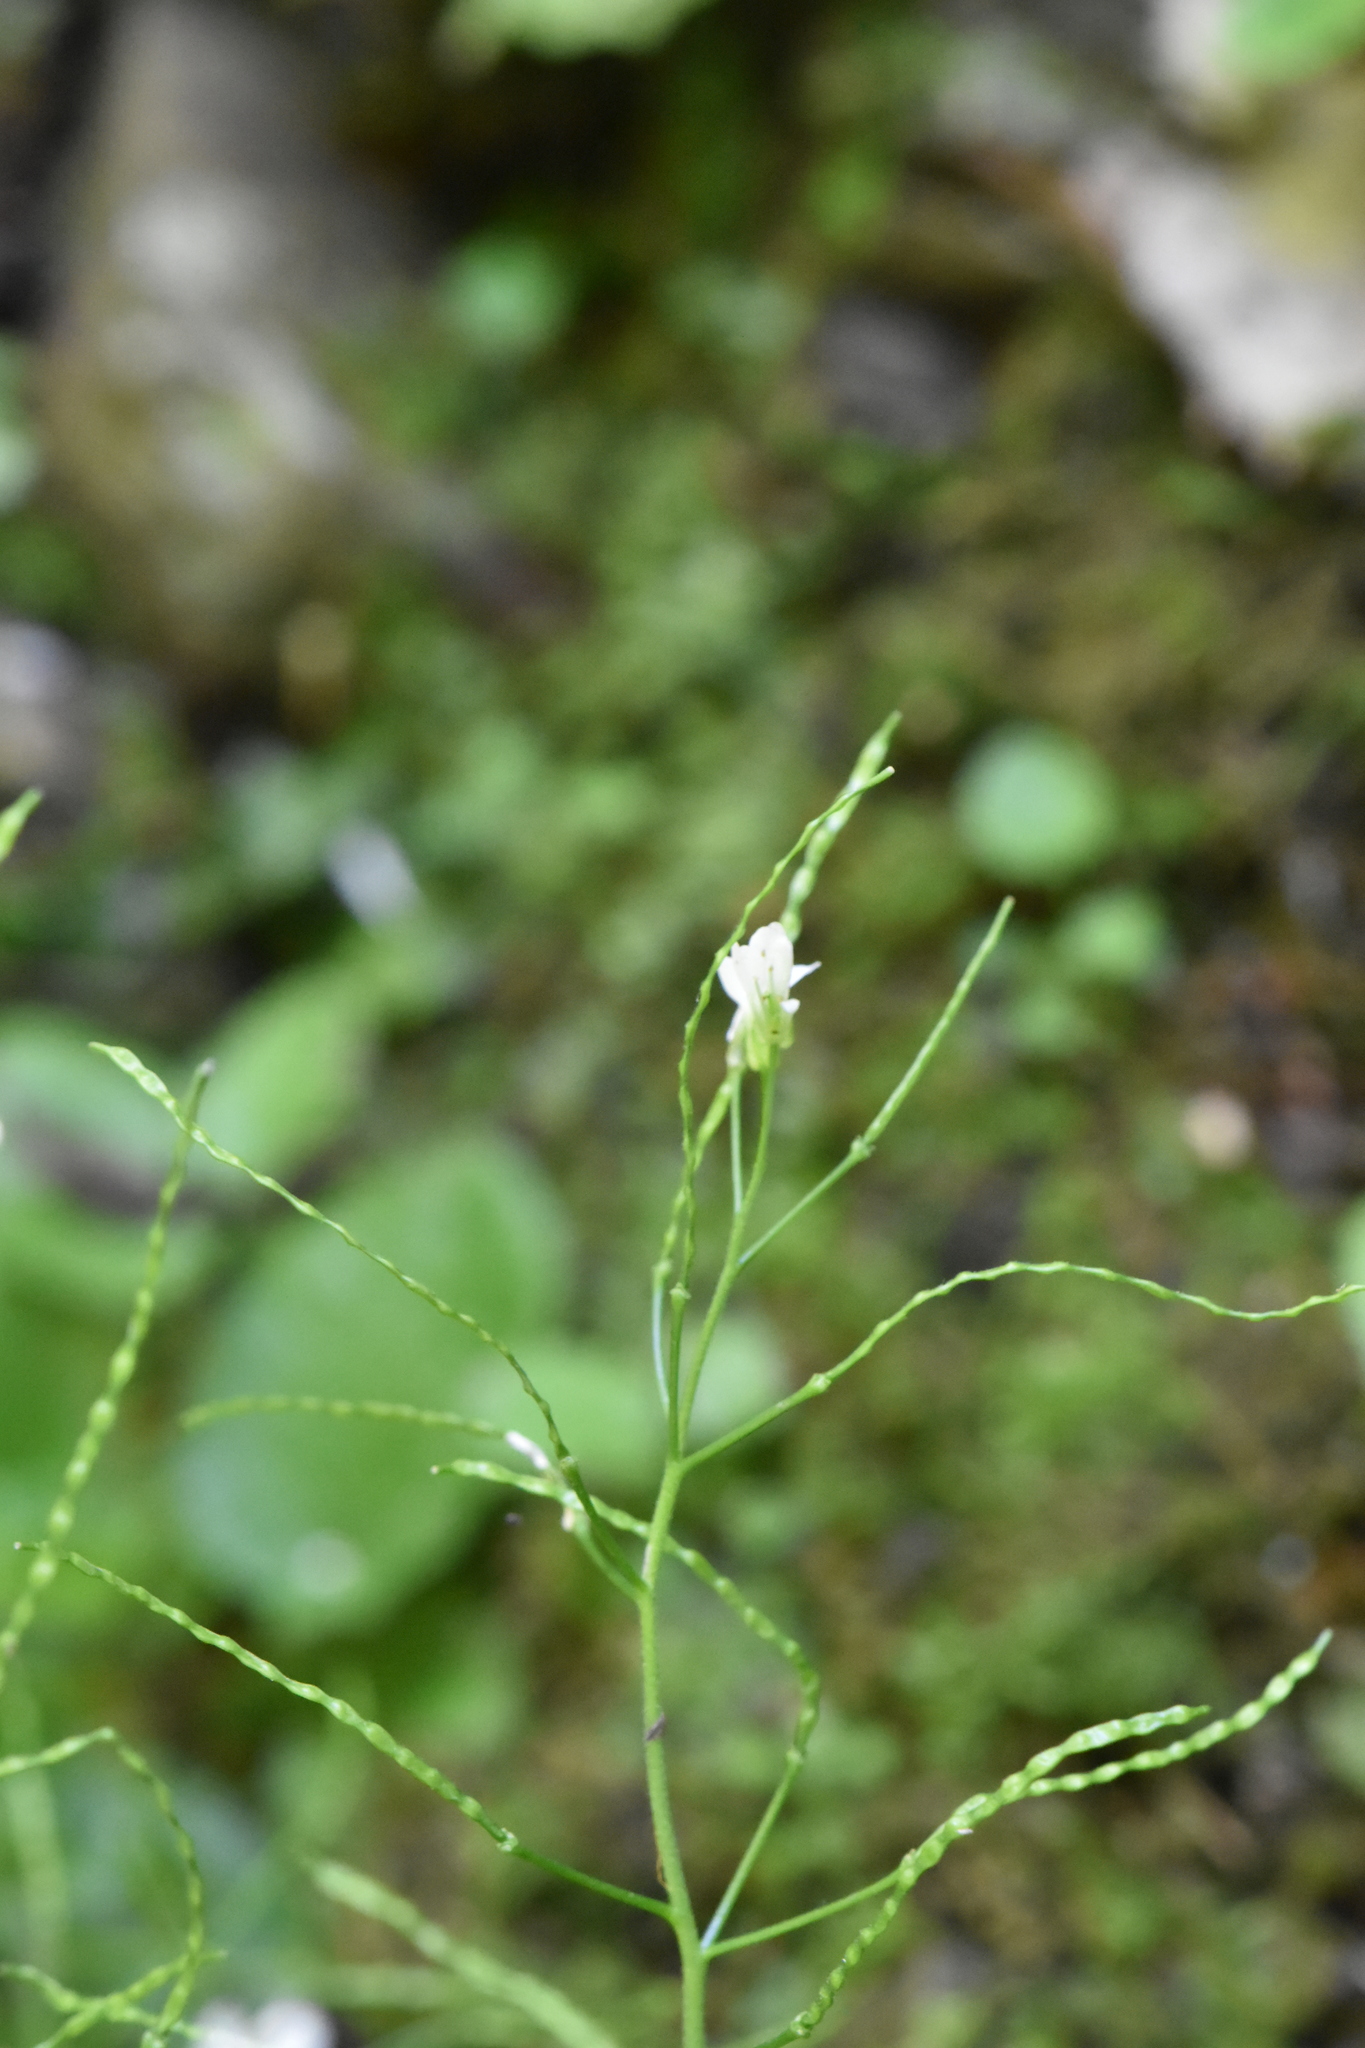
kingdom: Plantae
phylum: Tracheophyta
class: Magnoliopsida
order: Brassicales
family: Brassicaceae
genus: Arabis
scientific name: Arabis nordmanniana
